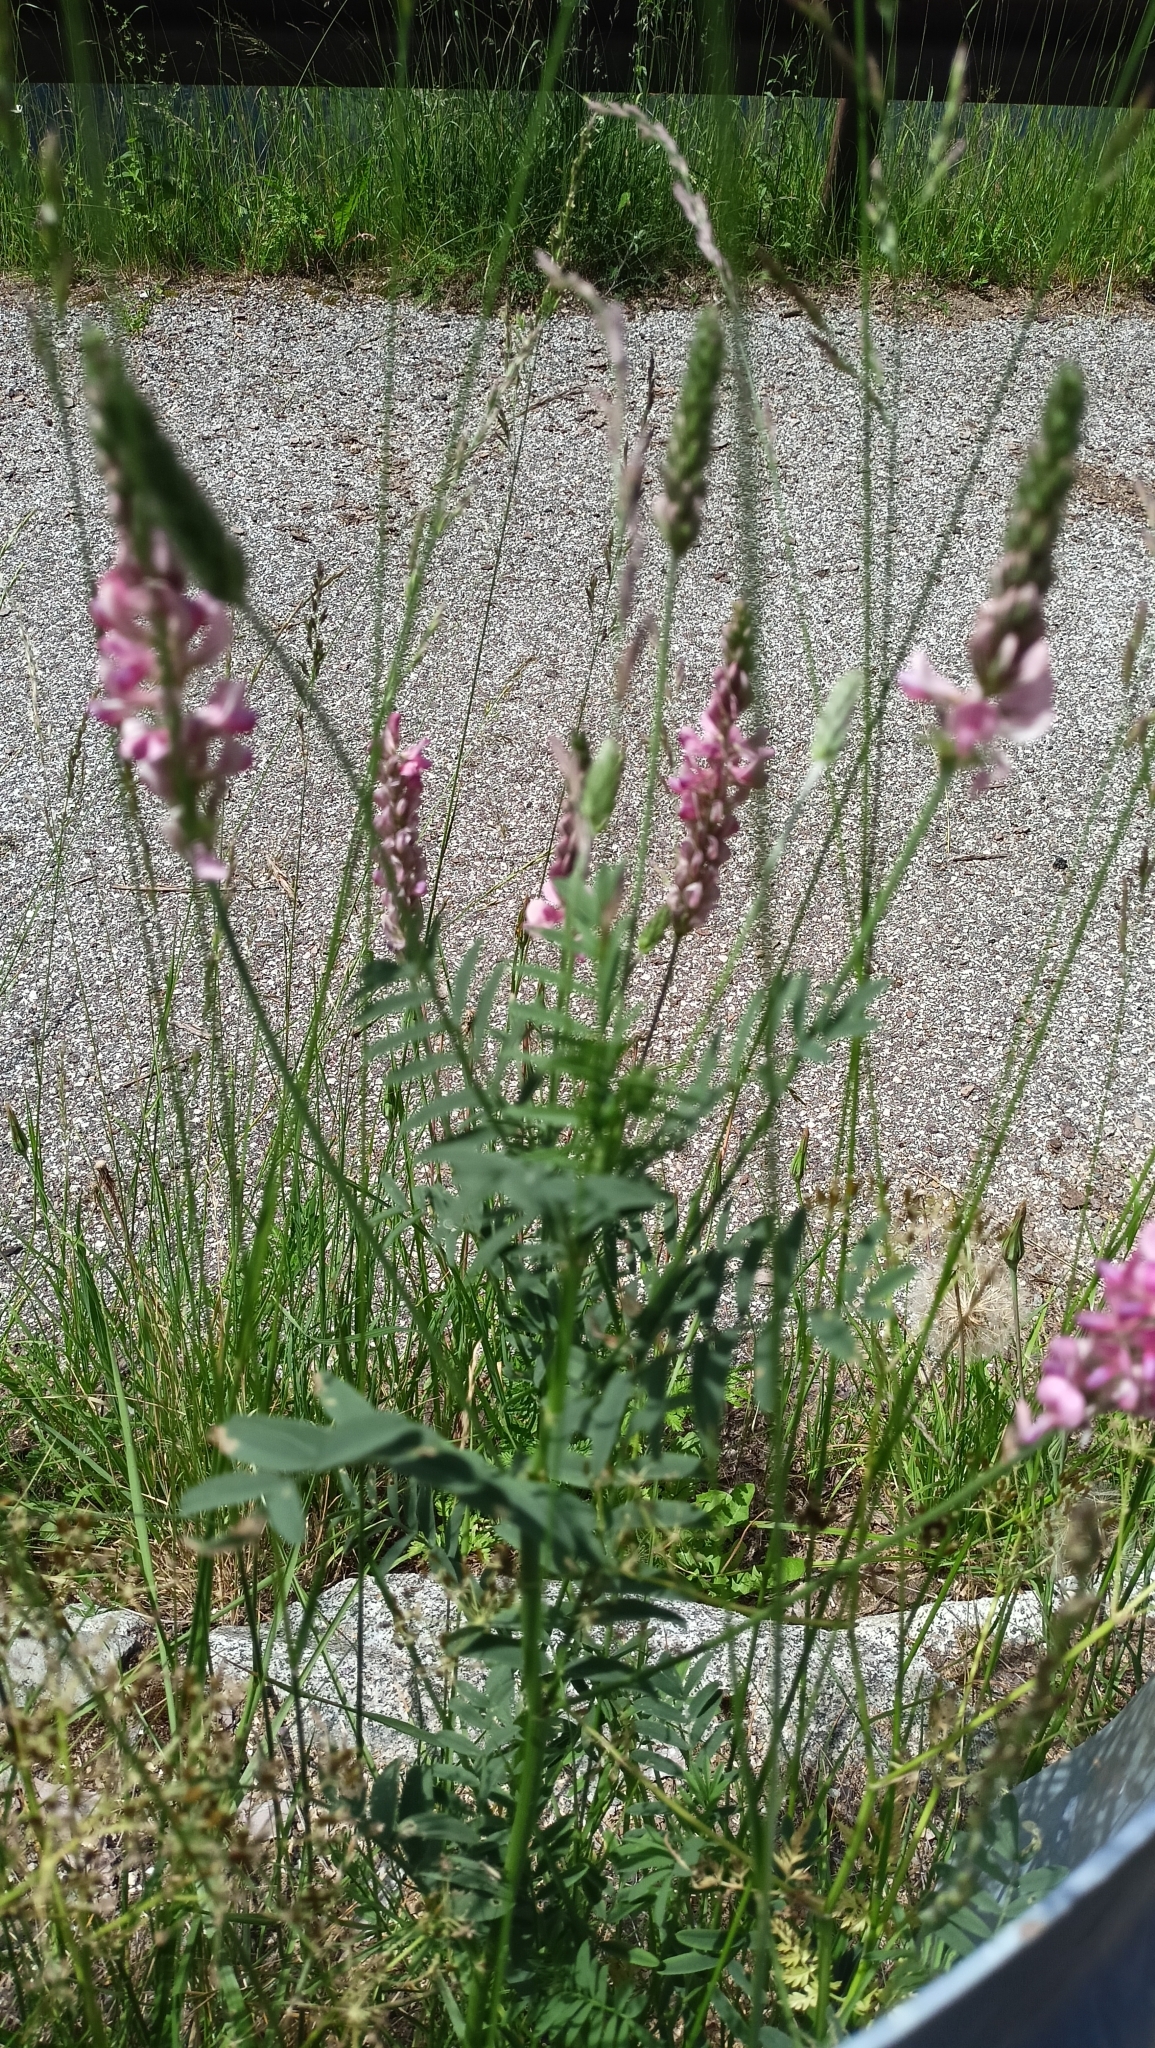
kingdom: Plantae
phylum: Tracheophyta
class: Magnoliopsida
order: Fabales
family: Fabaceae
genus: Onobrychis
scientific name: Onobrychis viciifolia
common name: Sainfoin
